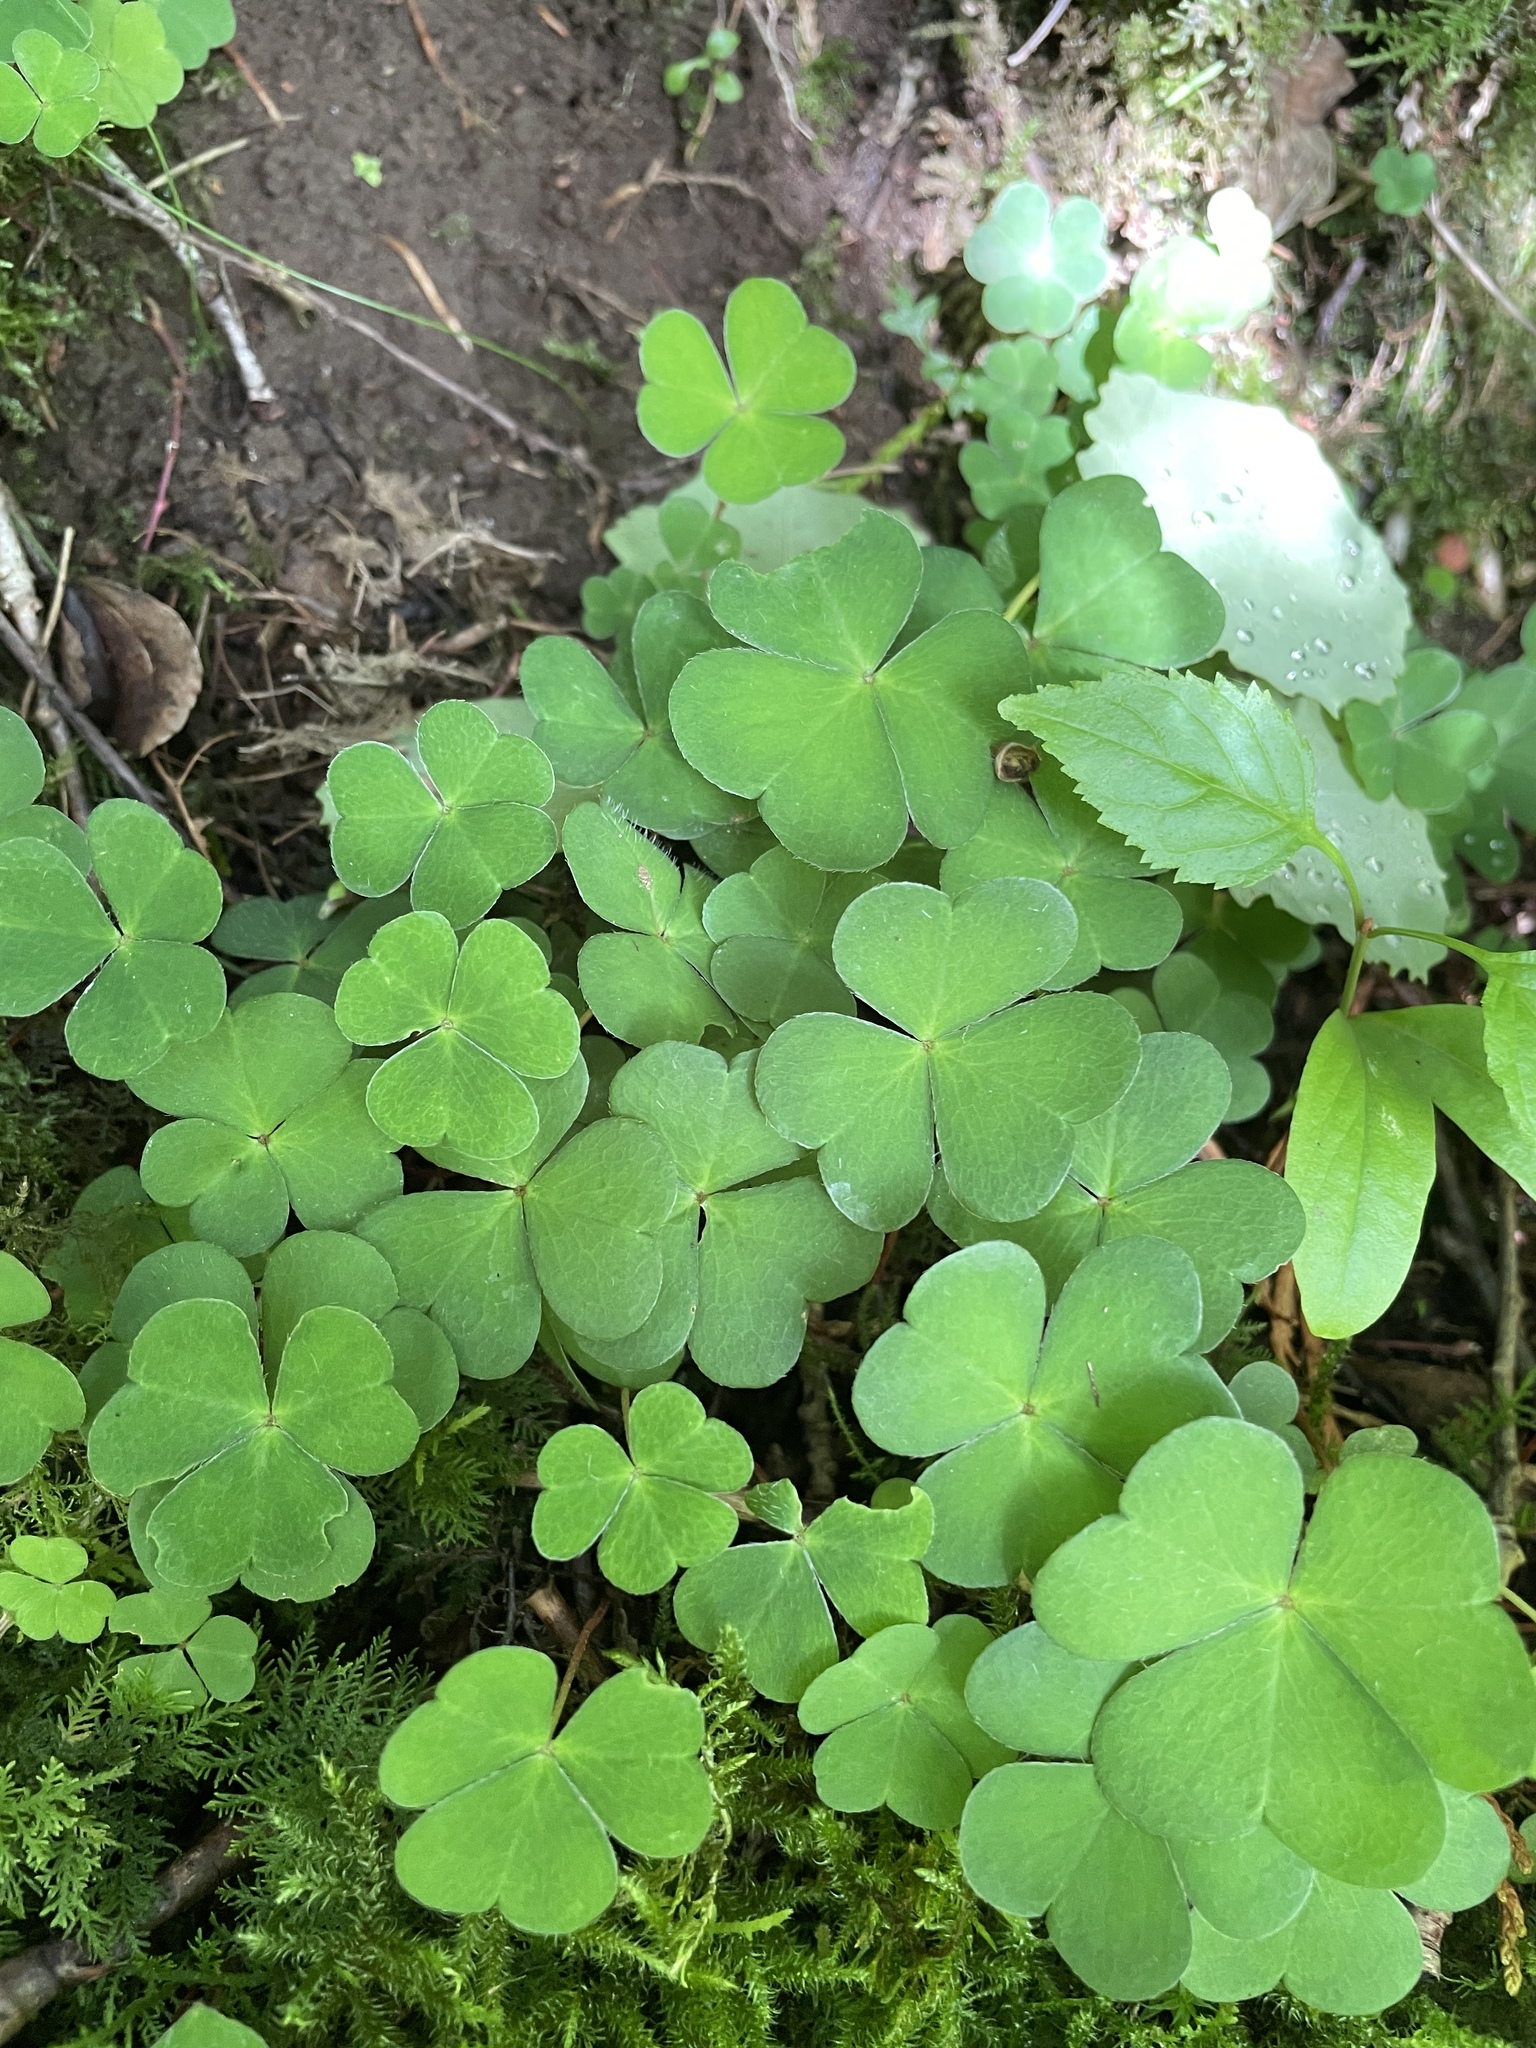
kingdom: Plantae
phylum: Tracheophyta
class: Magnoliopsida
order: Oxalidales
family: Oxalidaceae
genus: Oxalis
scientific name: Oxalis acetosella
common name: Wood-sorrel
